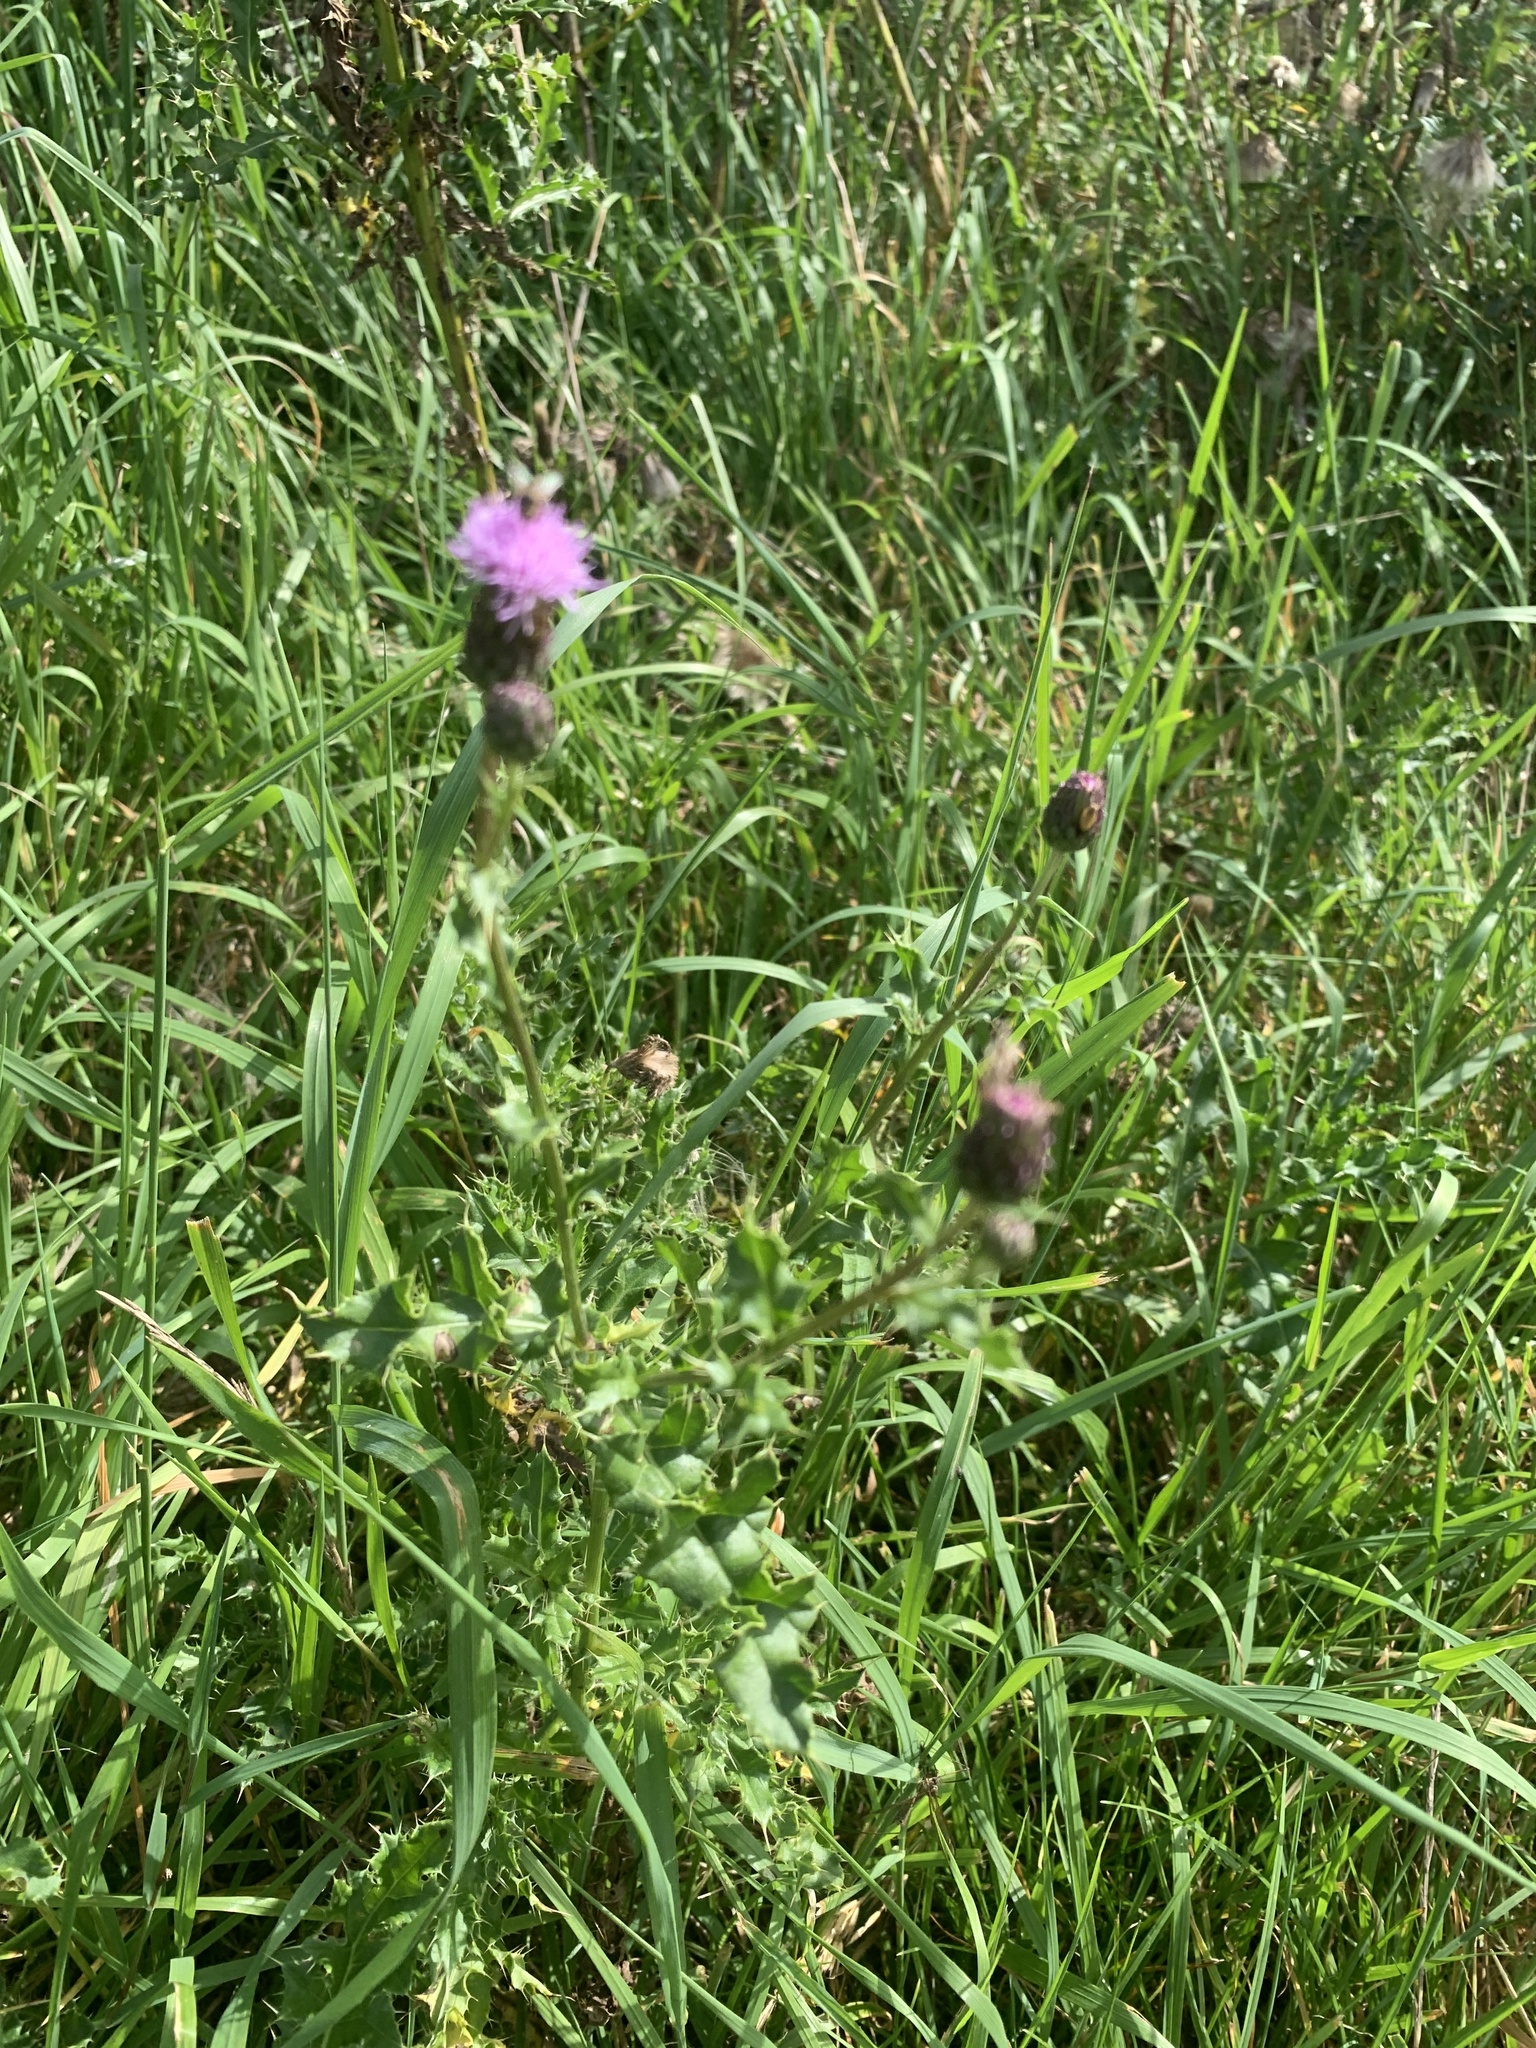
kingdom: Plantae
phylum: Tracheophyta
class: Magnoliopsida
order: Asterales
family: Asteraceae
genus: Cirsium
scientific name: Cirsium arvense
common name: Creeping thistle
